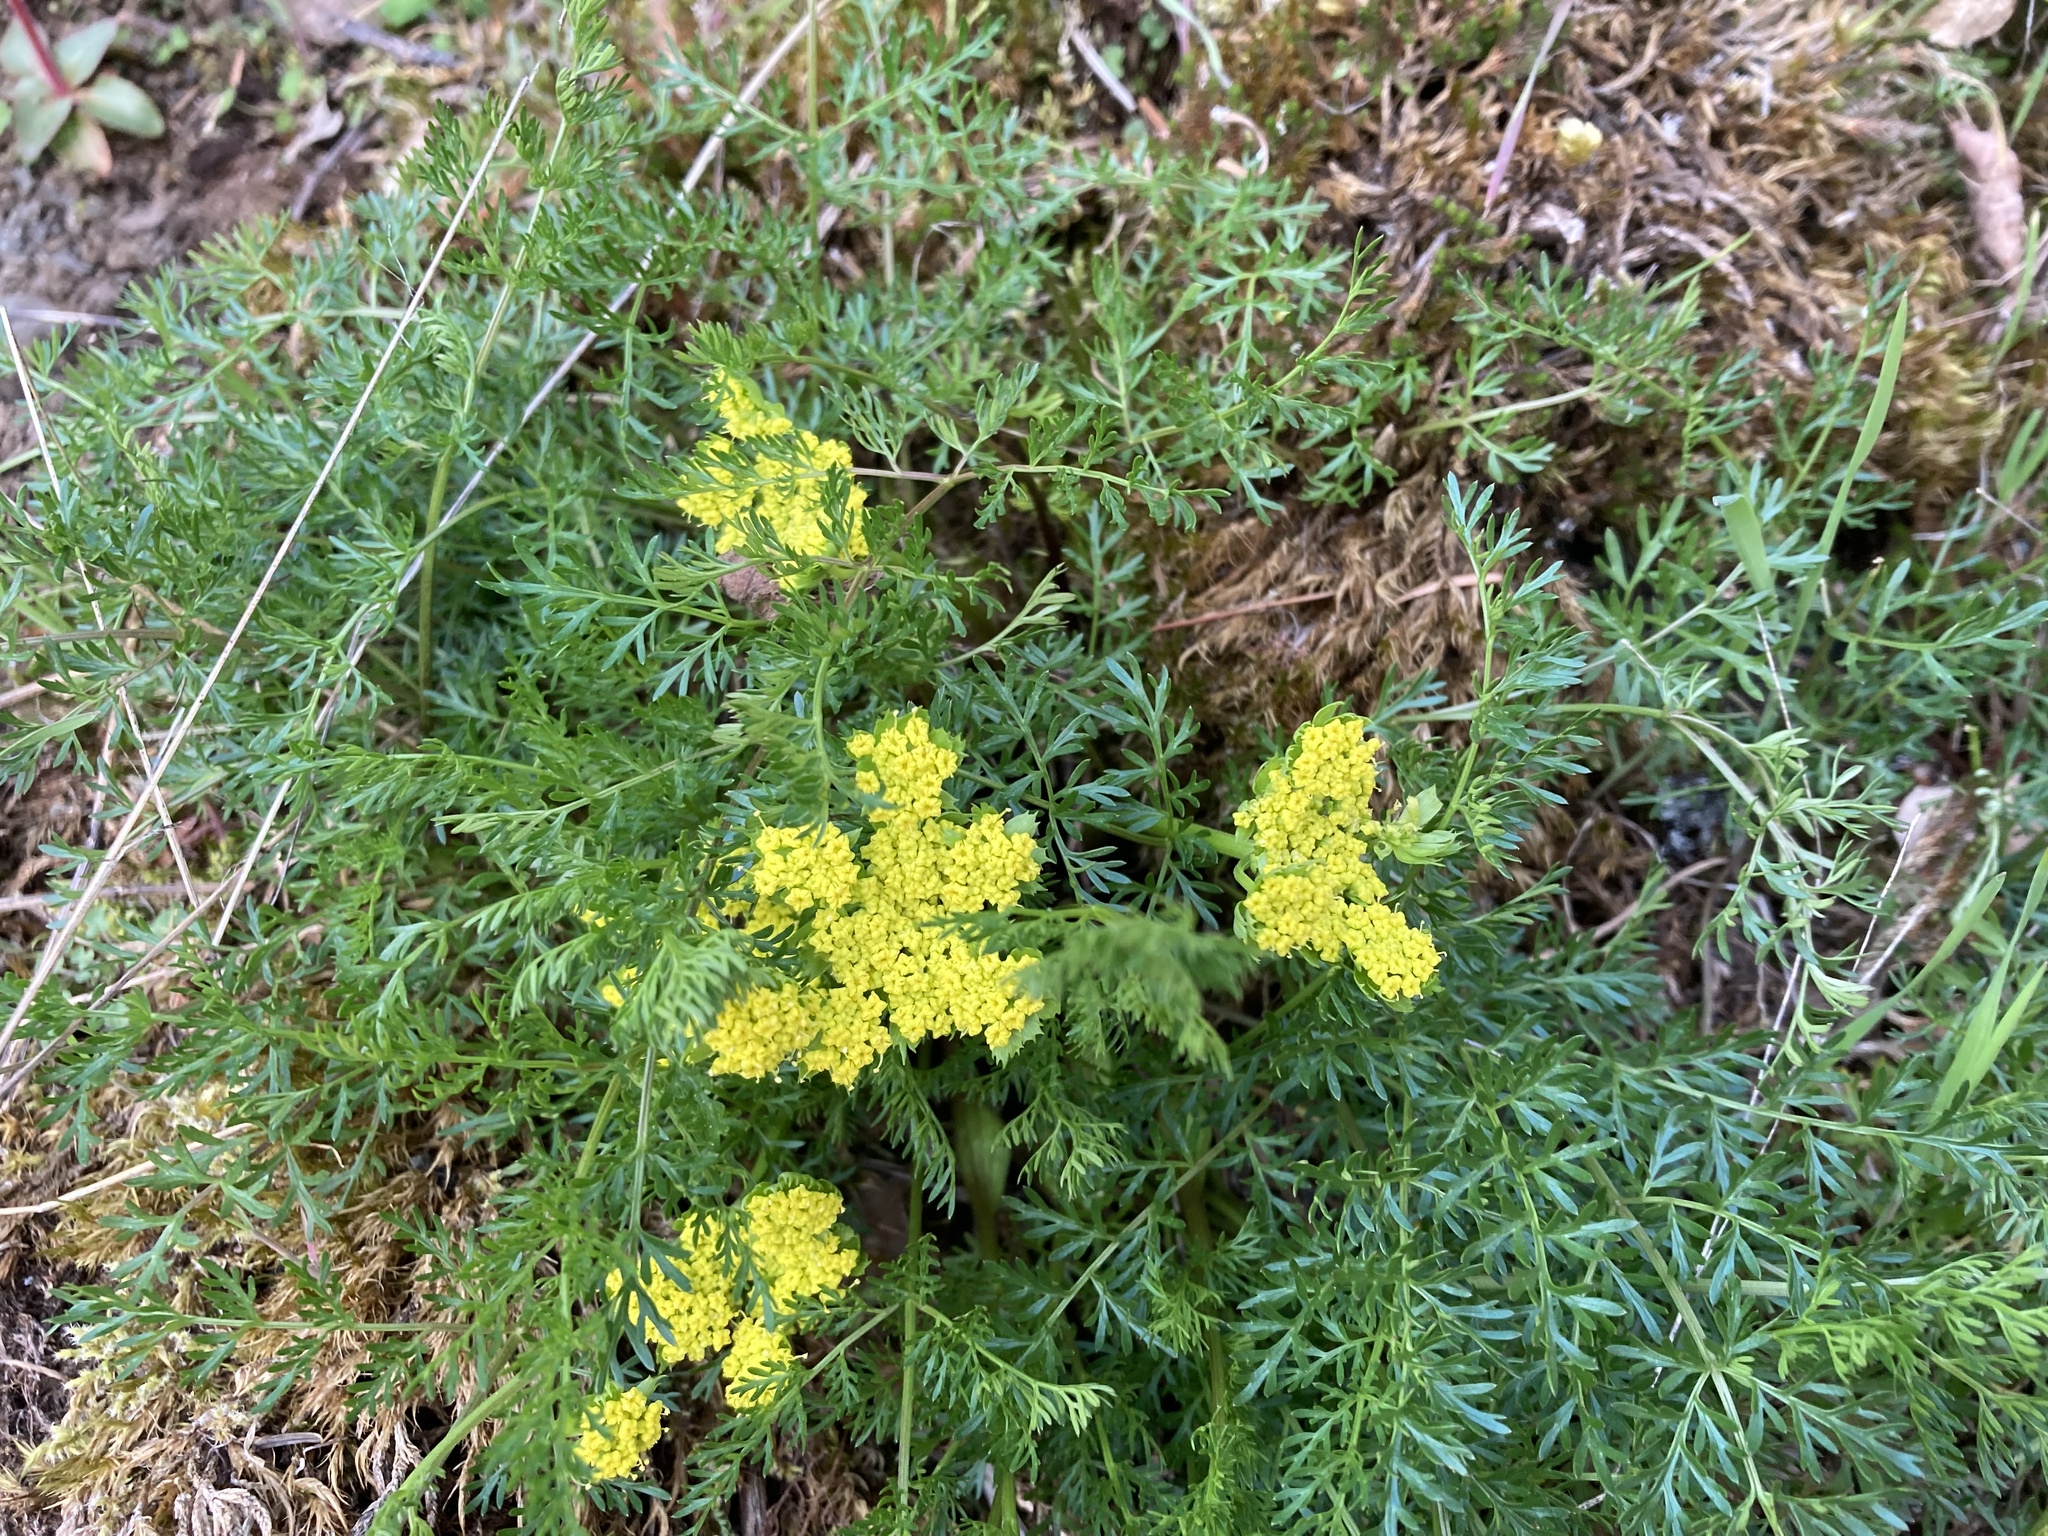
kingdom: Plantae
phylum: Tracheophyta
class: Magnoliopsida
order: Apiales
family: Apiaceae
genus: Lomatium
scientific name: Lomatium utriculatum
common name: Fine-leaf desert-parsley
